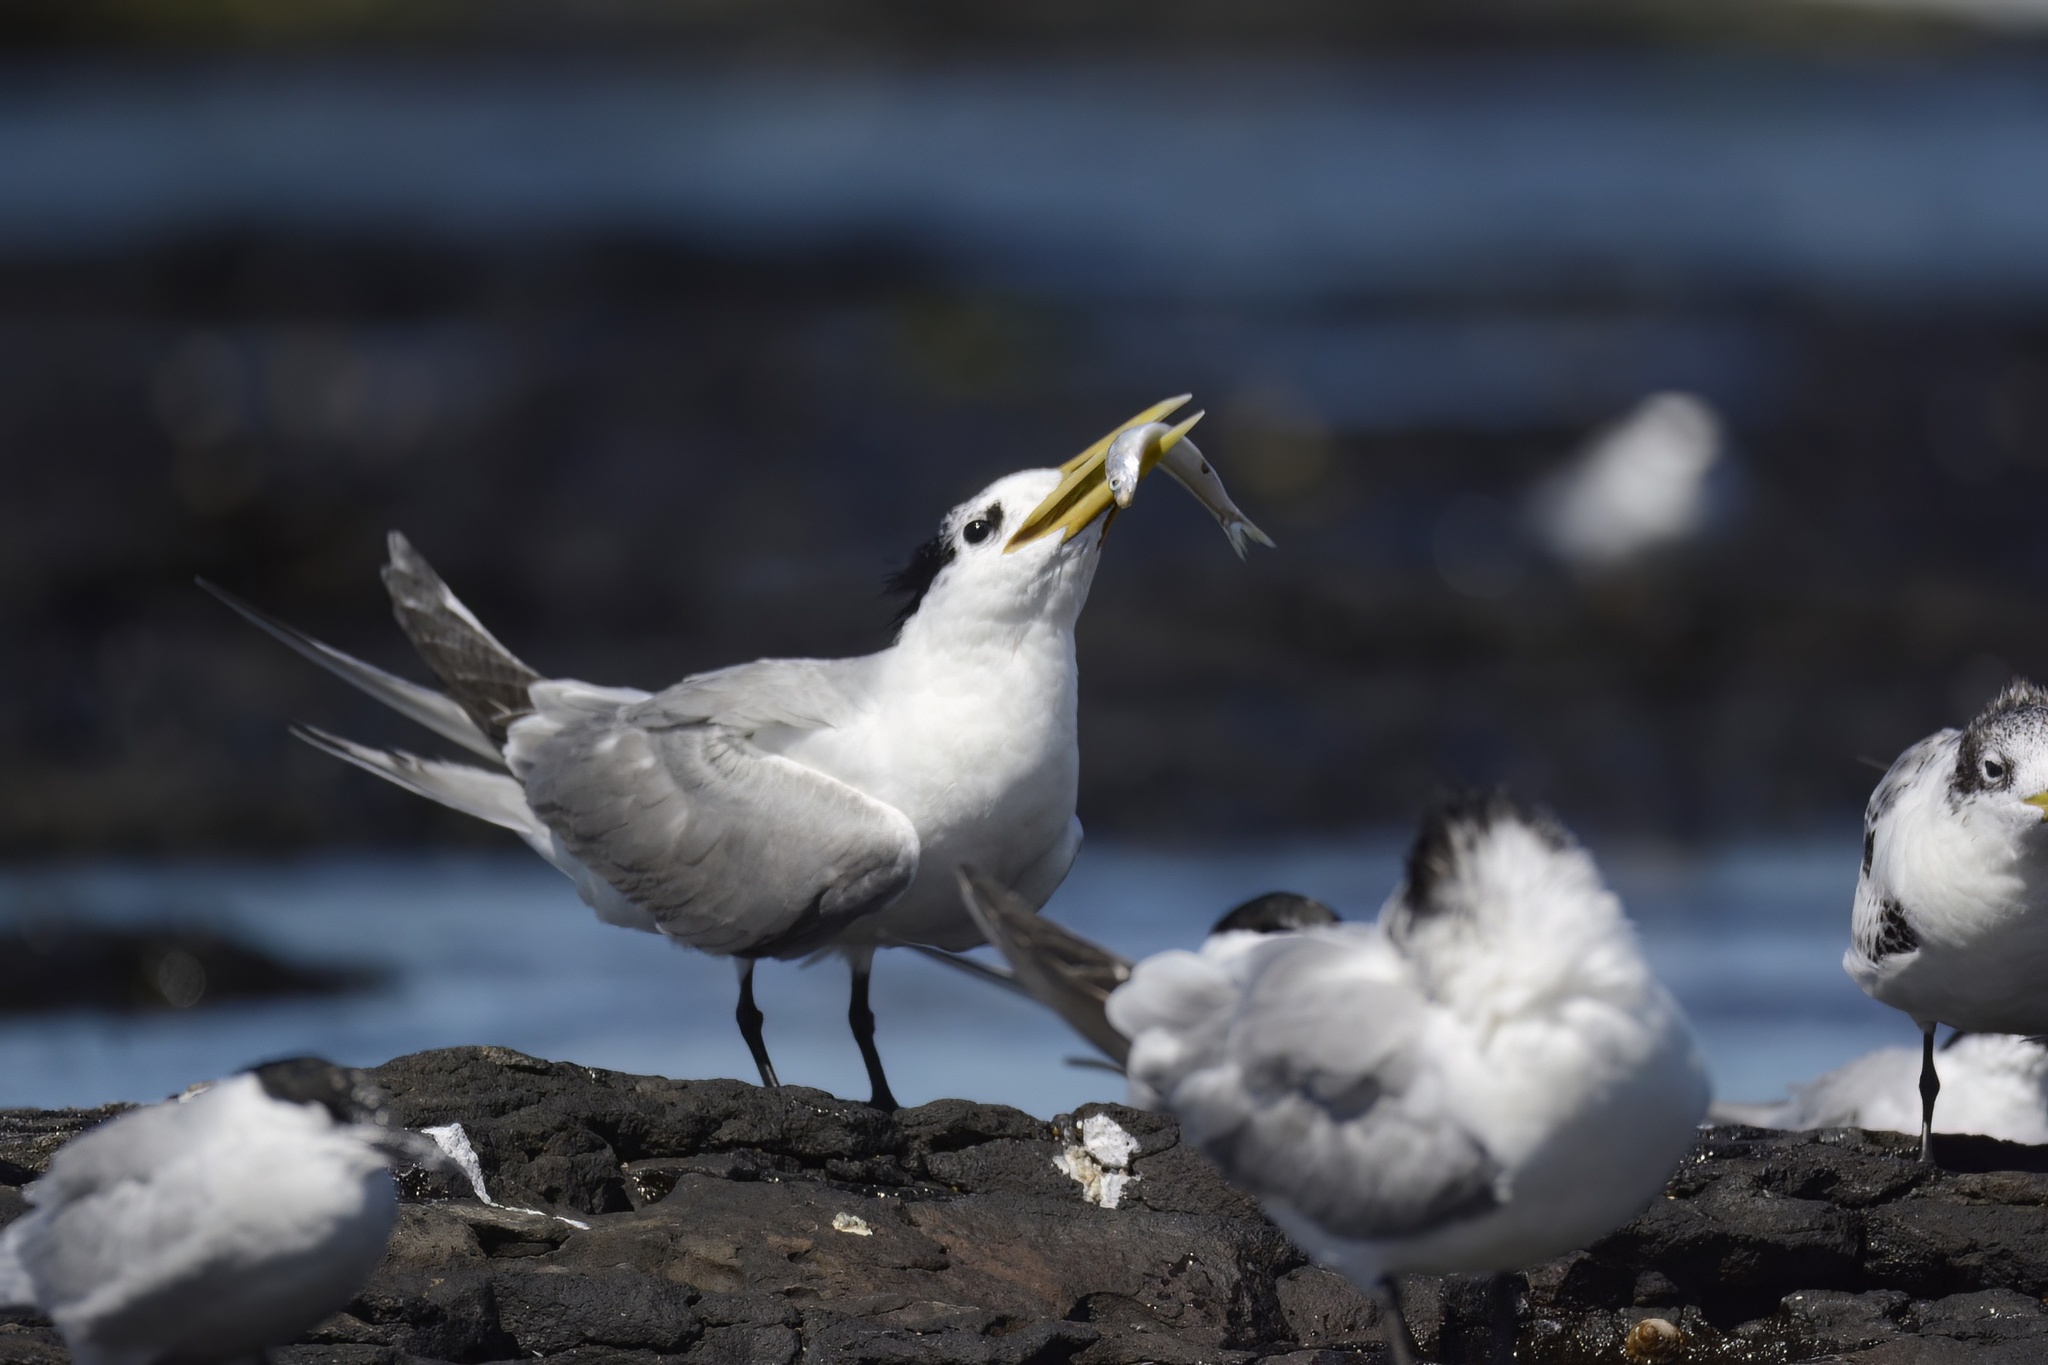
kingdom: Animalia
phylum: Chordata
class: Aves
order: Charadriiformes
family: Laridae
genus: Thalasseus
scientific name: Thalasseus bergii
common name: Greater crested tern
